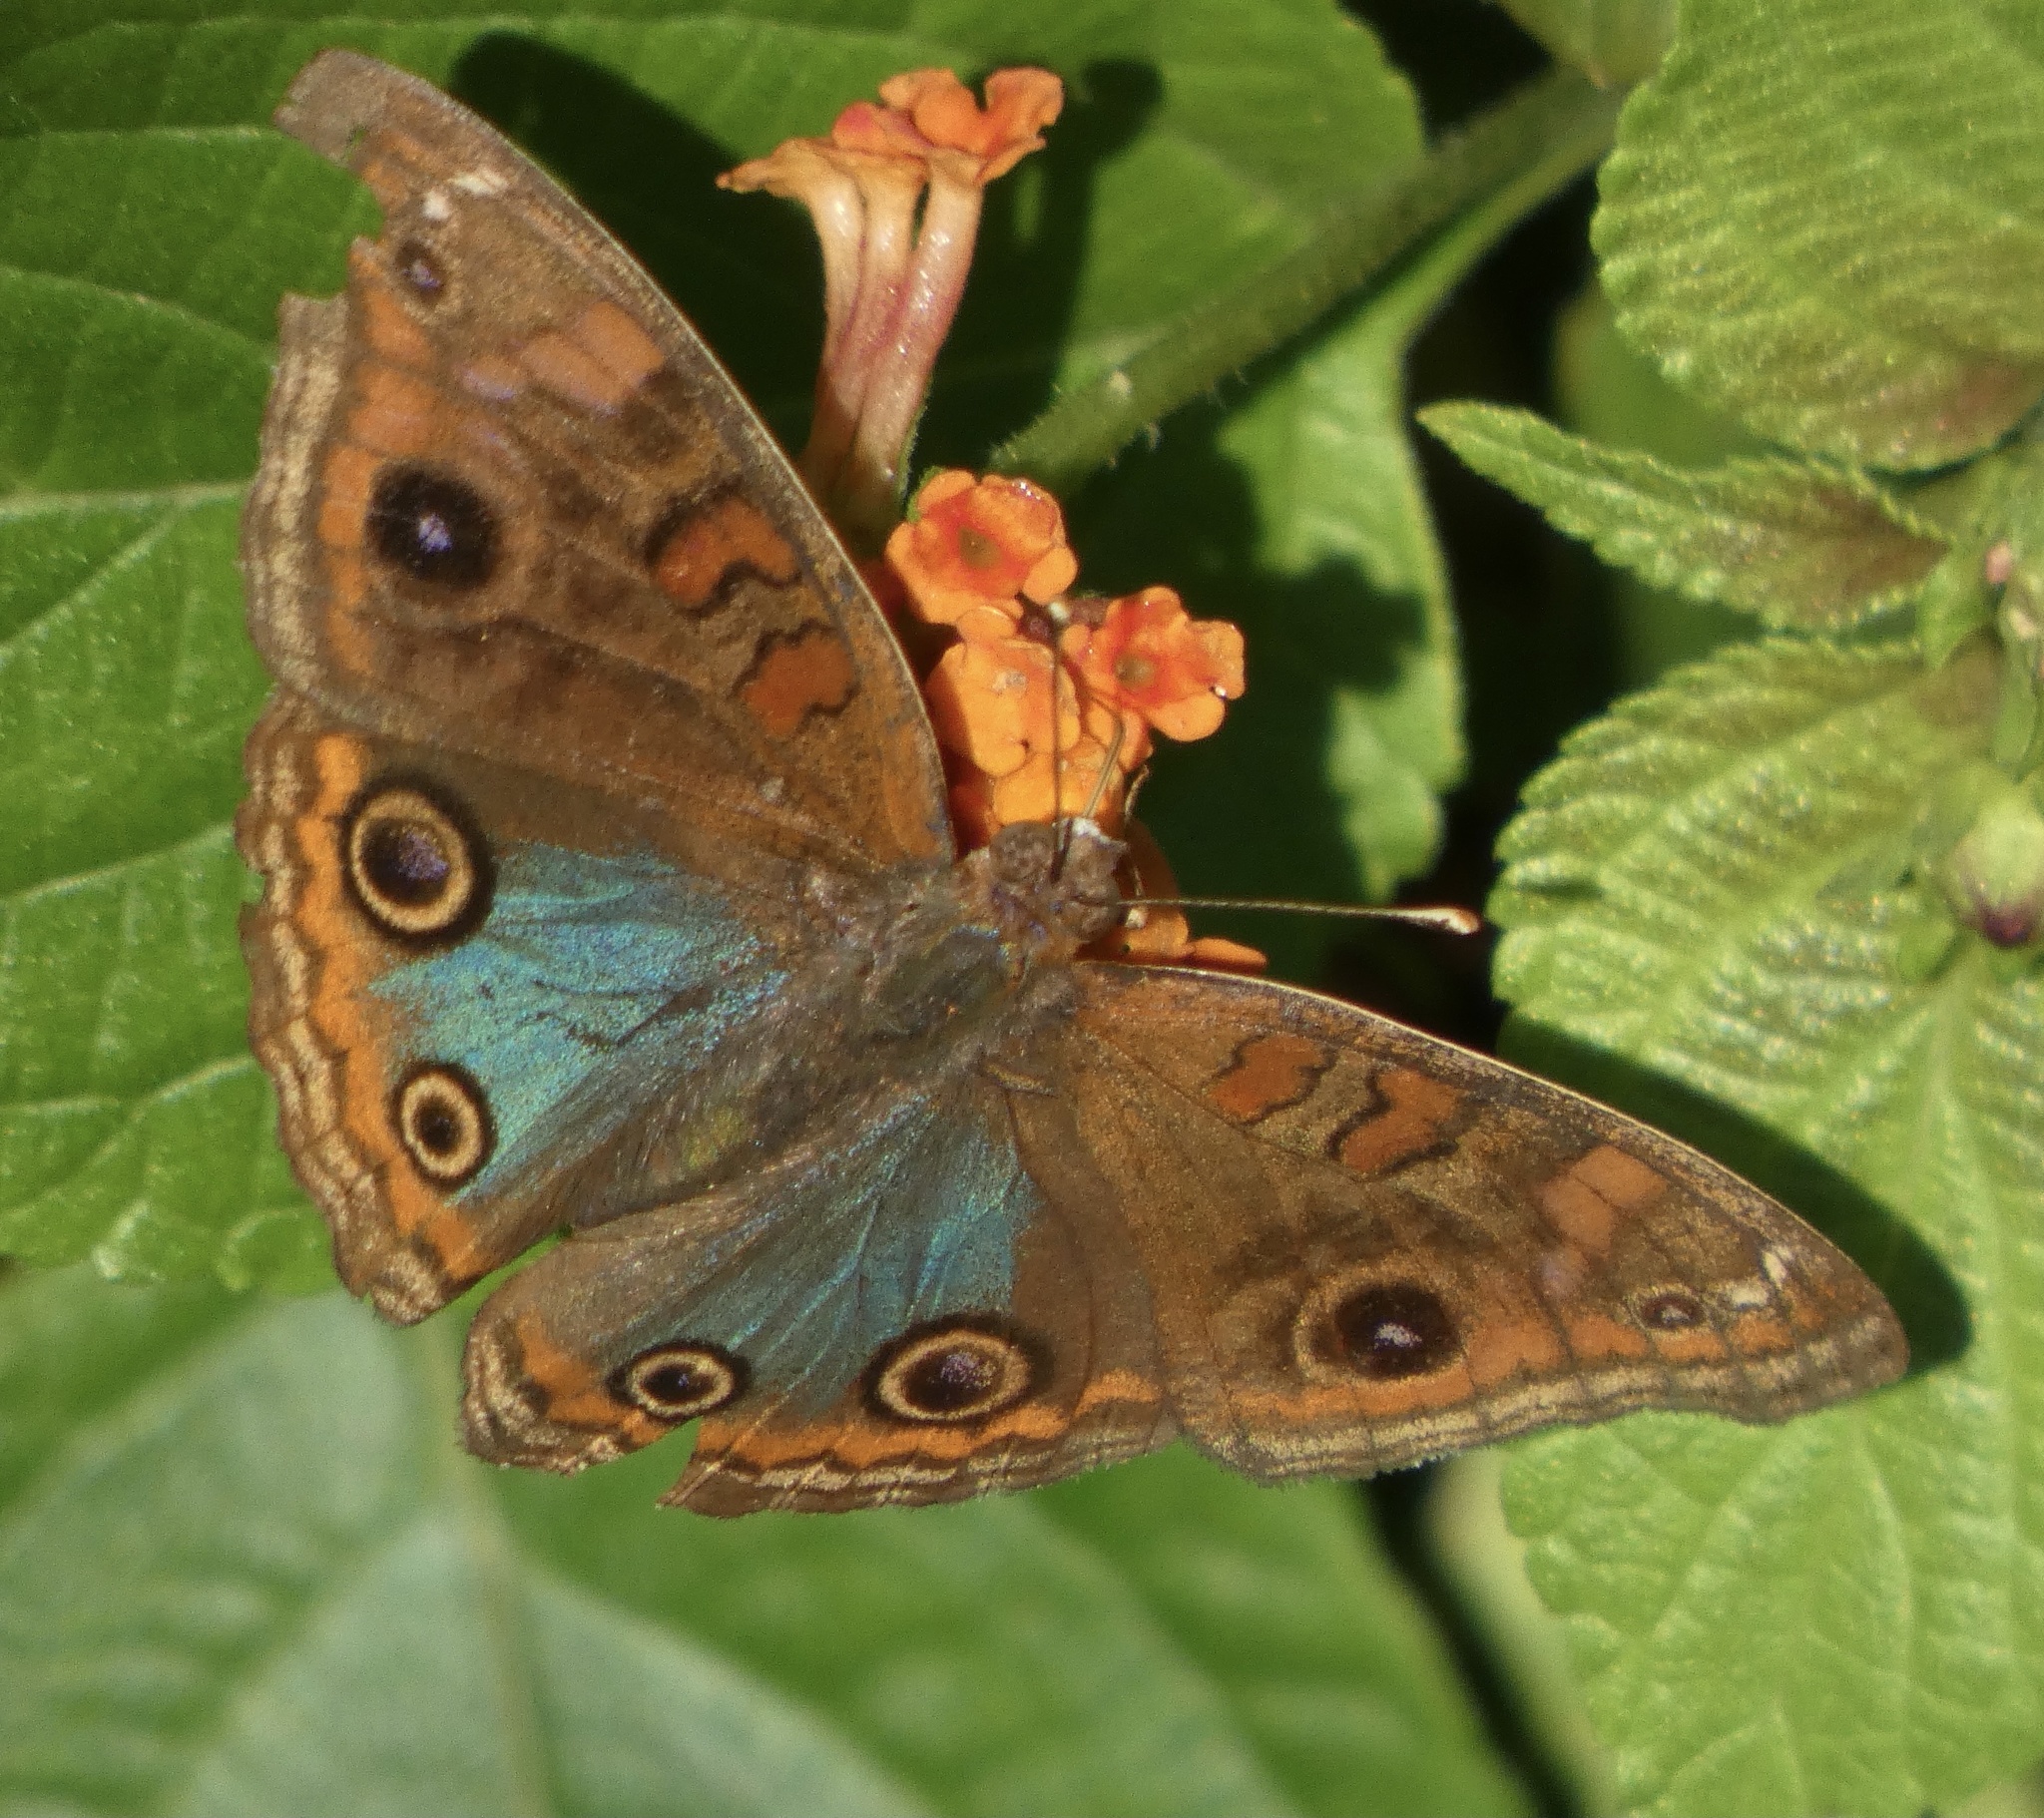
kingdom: Animalia
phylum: Arthropoda
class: Insecta
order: Lepidoptera
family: Nymphalidae
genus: Junonia
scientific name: Junonia evarete
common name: Black mangrove buckeye
